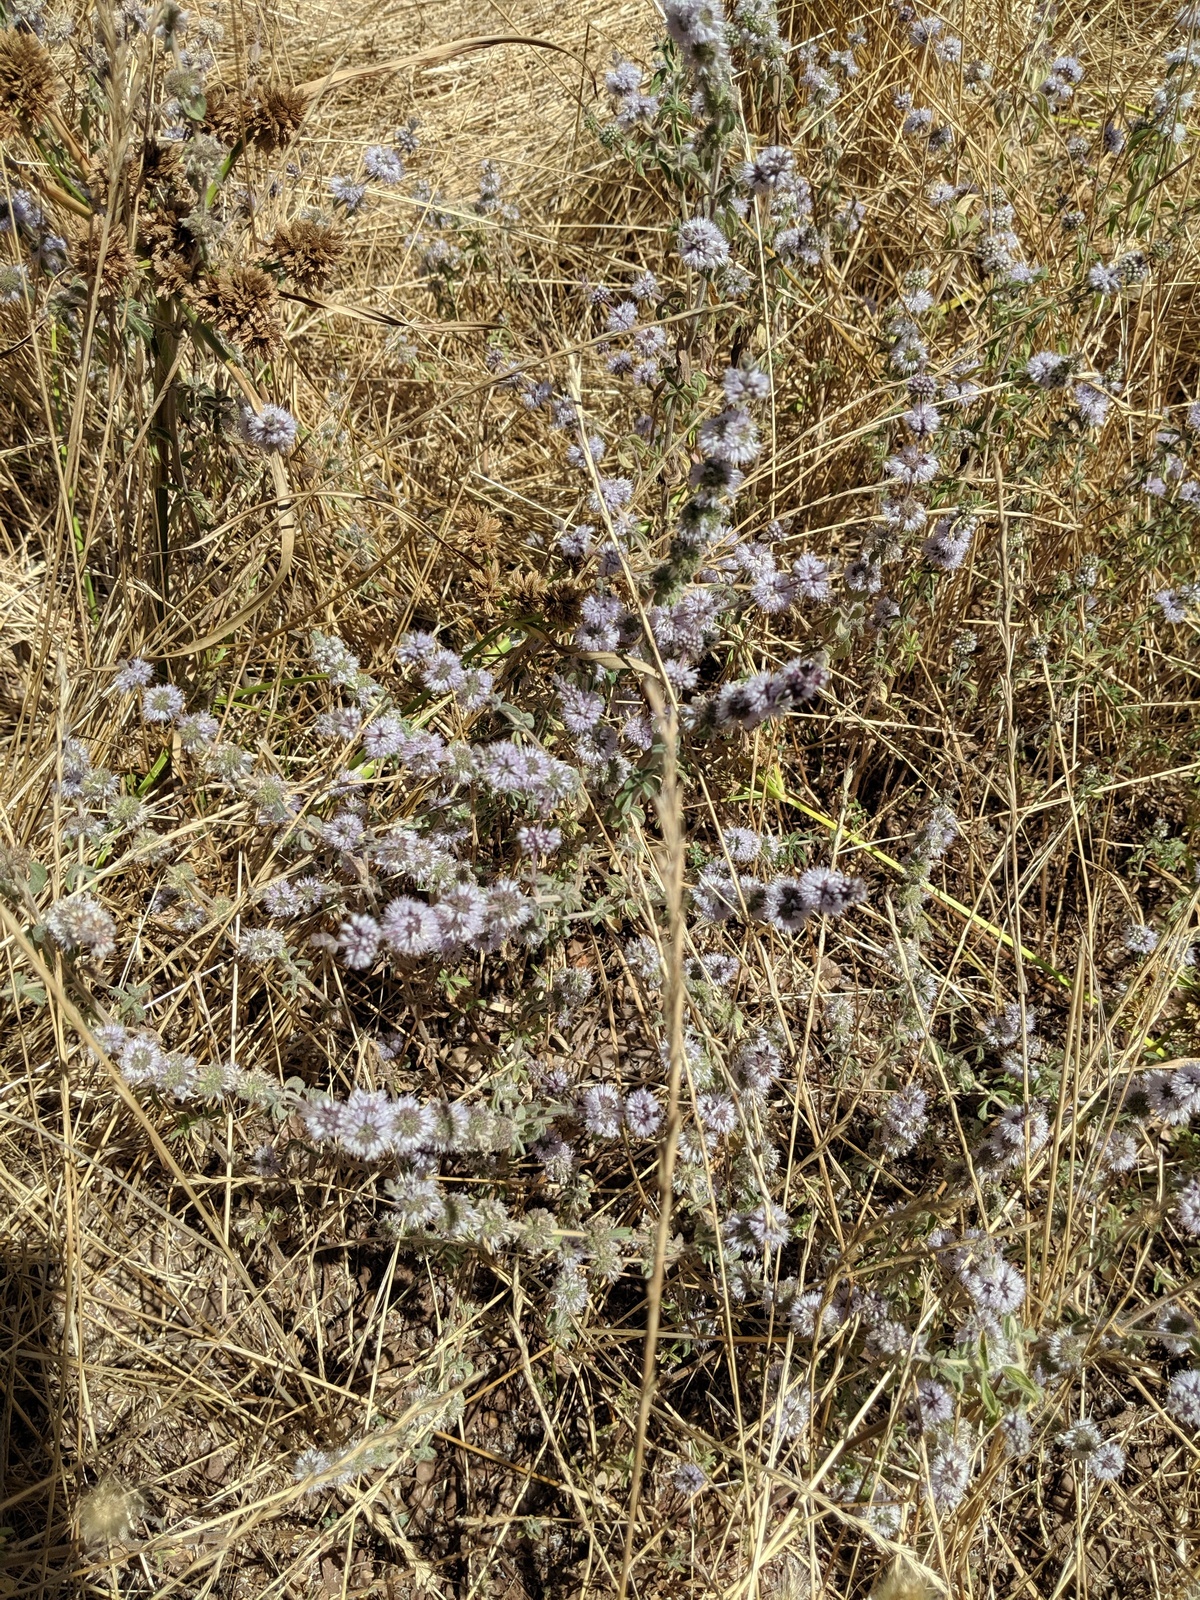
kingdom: Plantae
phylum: Tracheophyta
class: Magnoliopsida
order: Lamiales
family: Lamiaceae
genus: Mentha
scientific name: Mentha pulegium
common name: Pennyroyal
